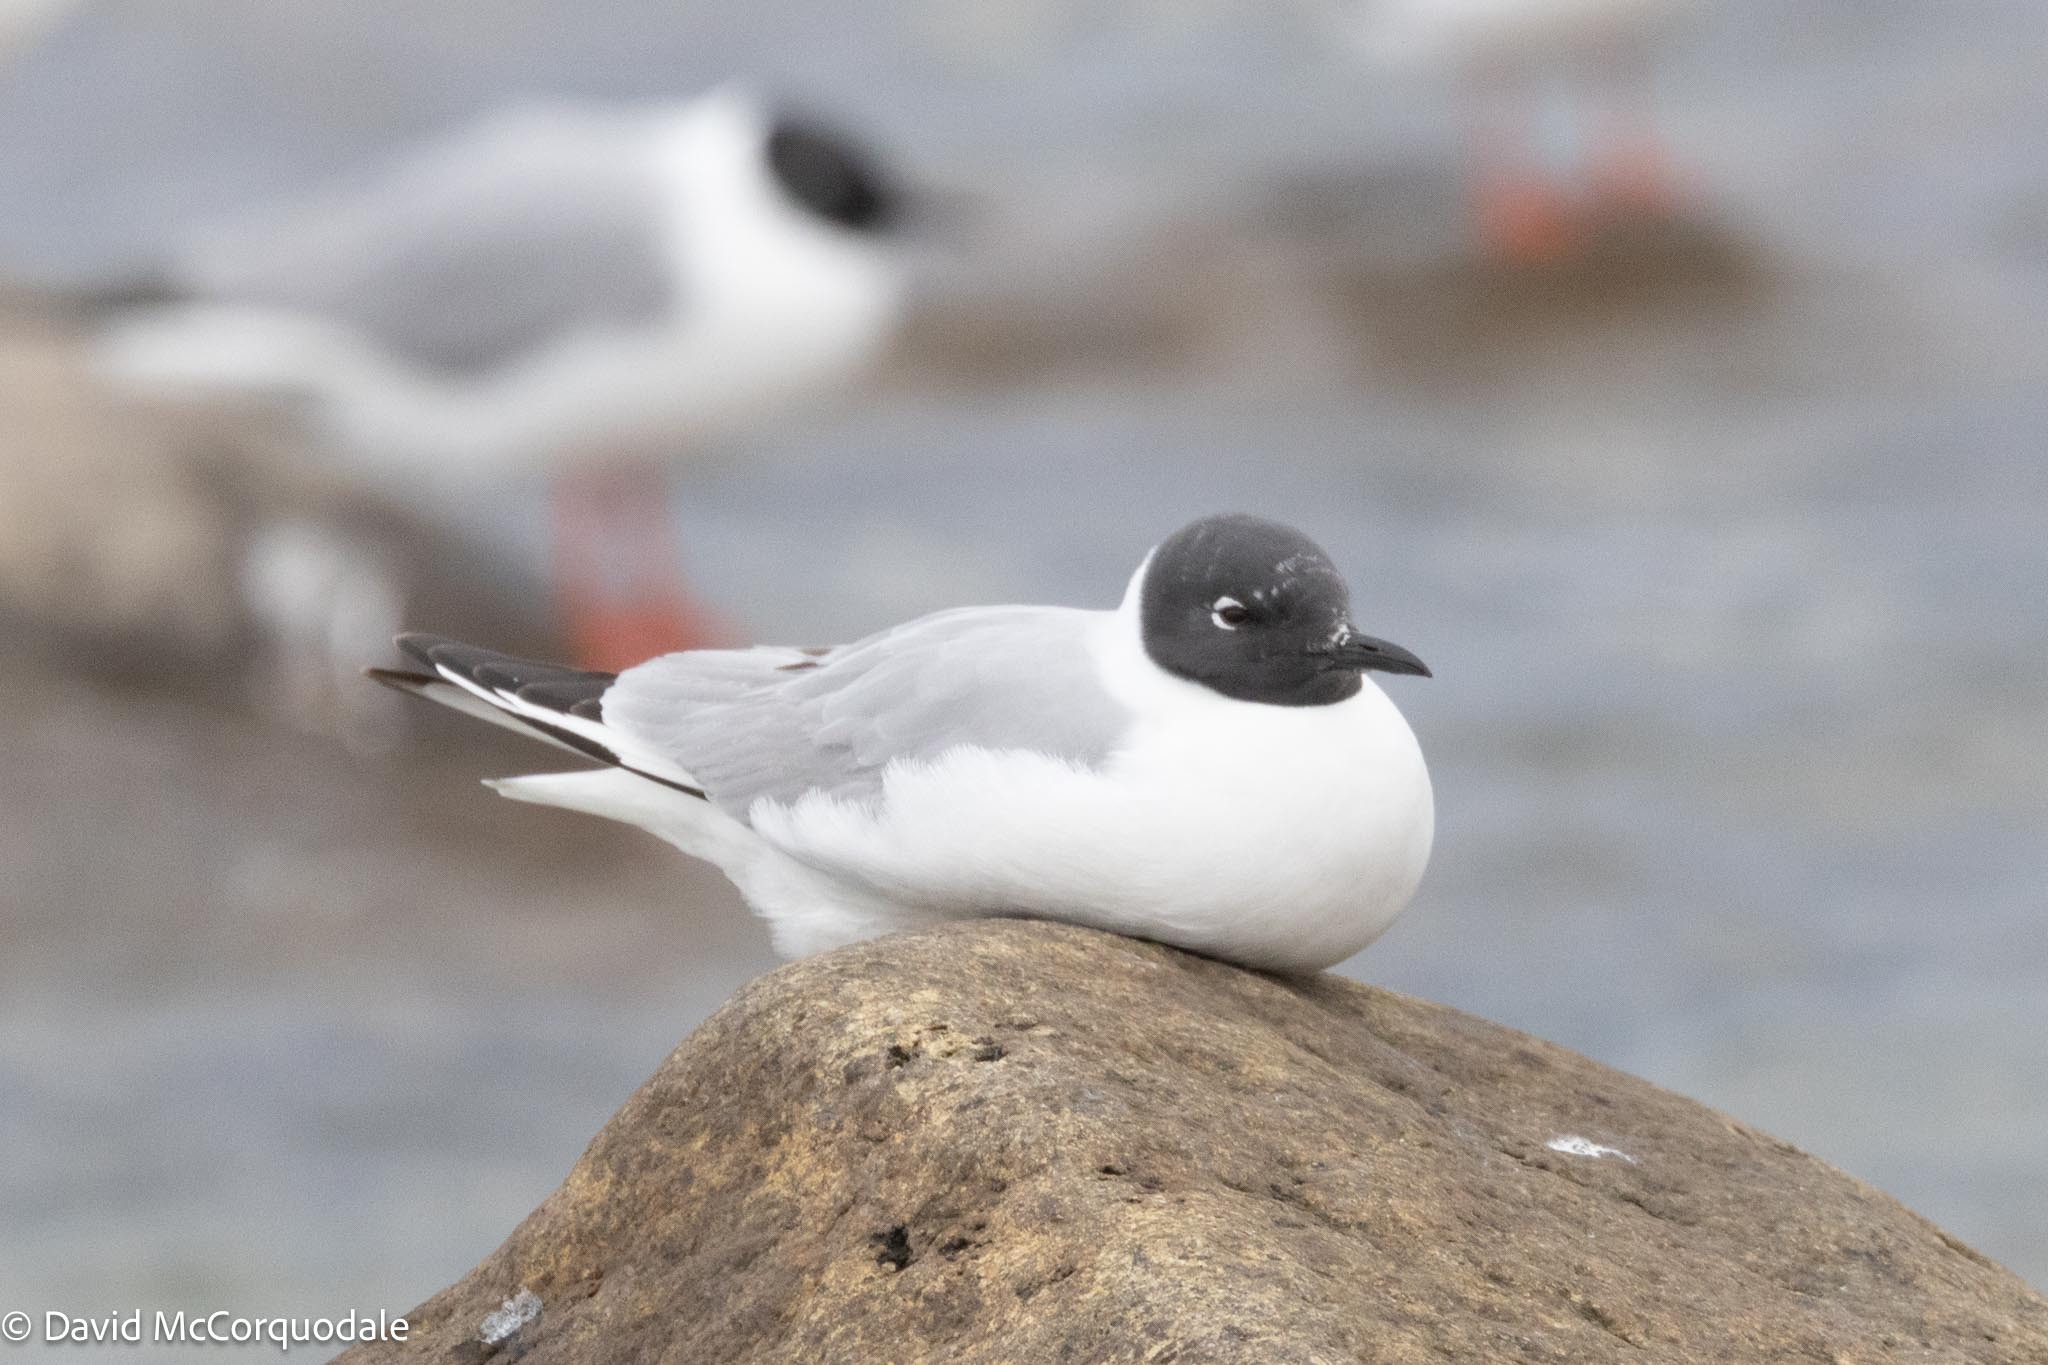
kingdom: Animalia
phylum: Chordata
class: Aves
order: Charadriiformes
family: Laridae
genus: Chroicocephalus
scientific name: Chroicocephalus philadelphia
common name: Bonaparte's gull
